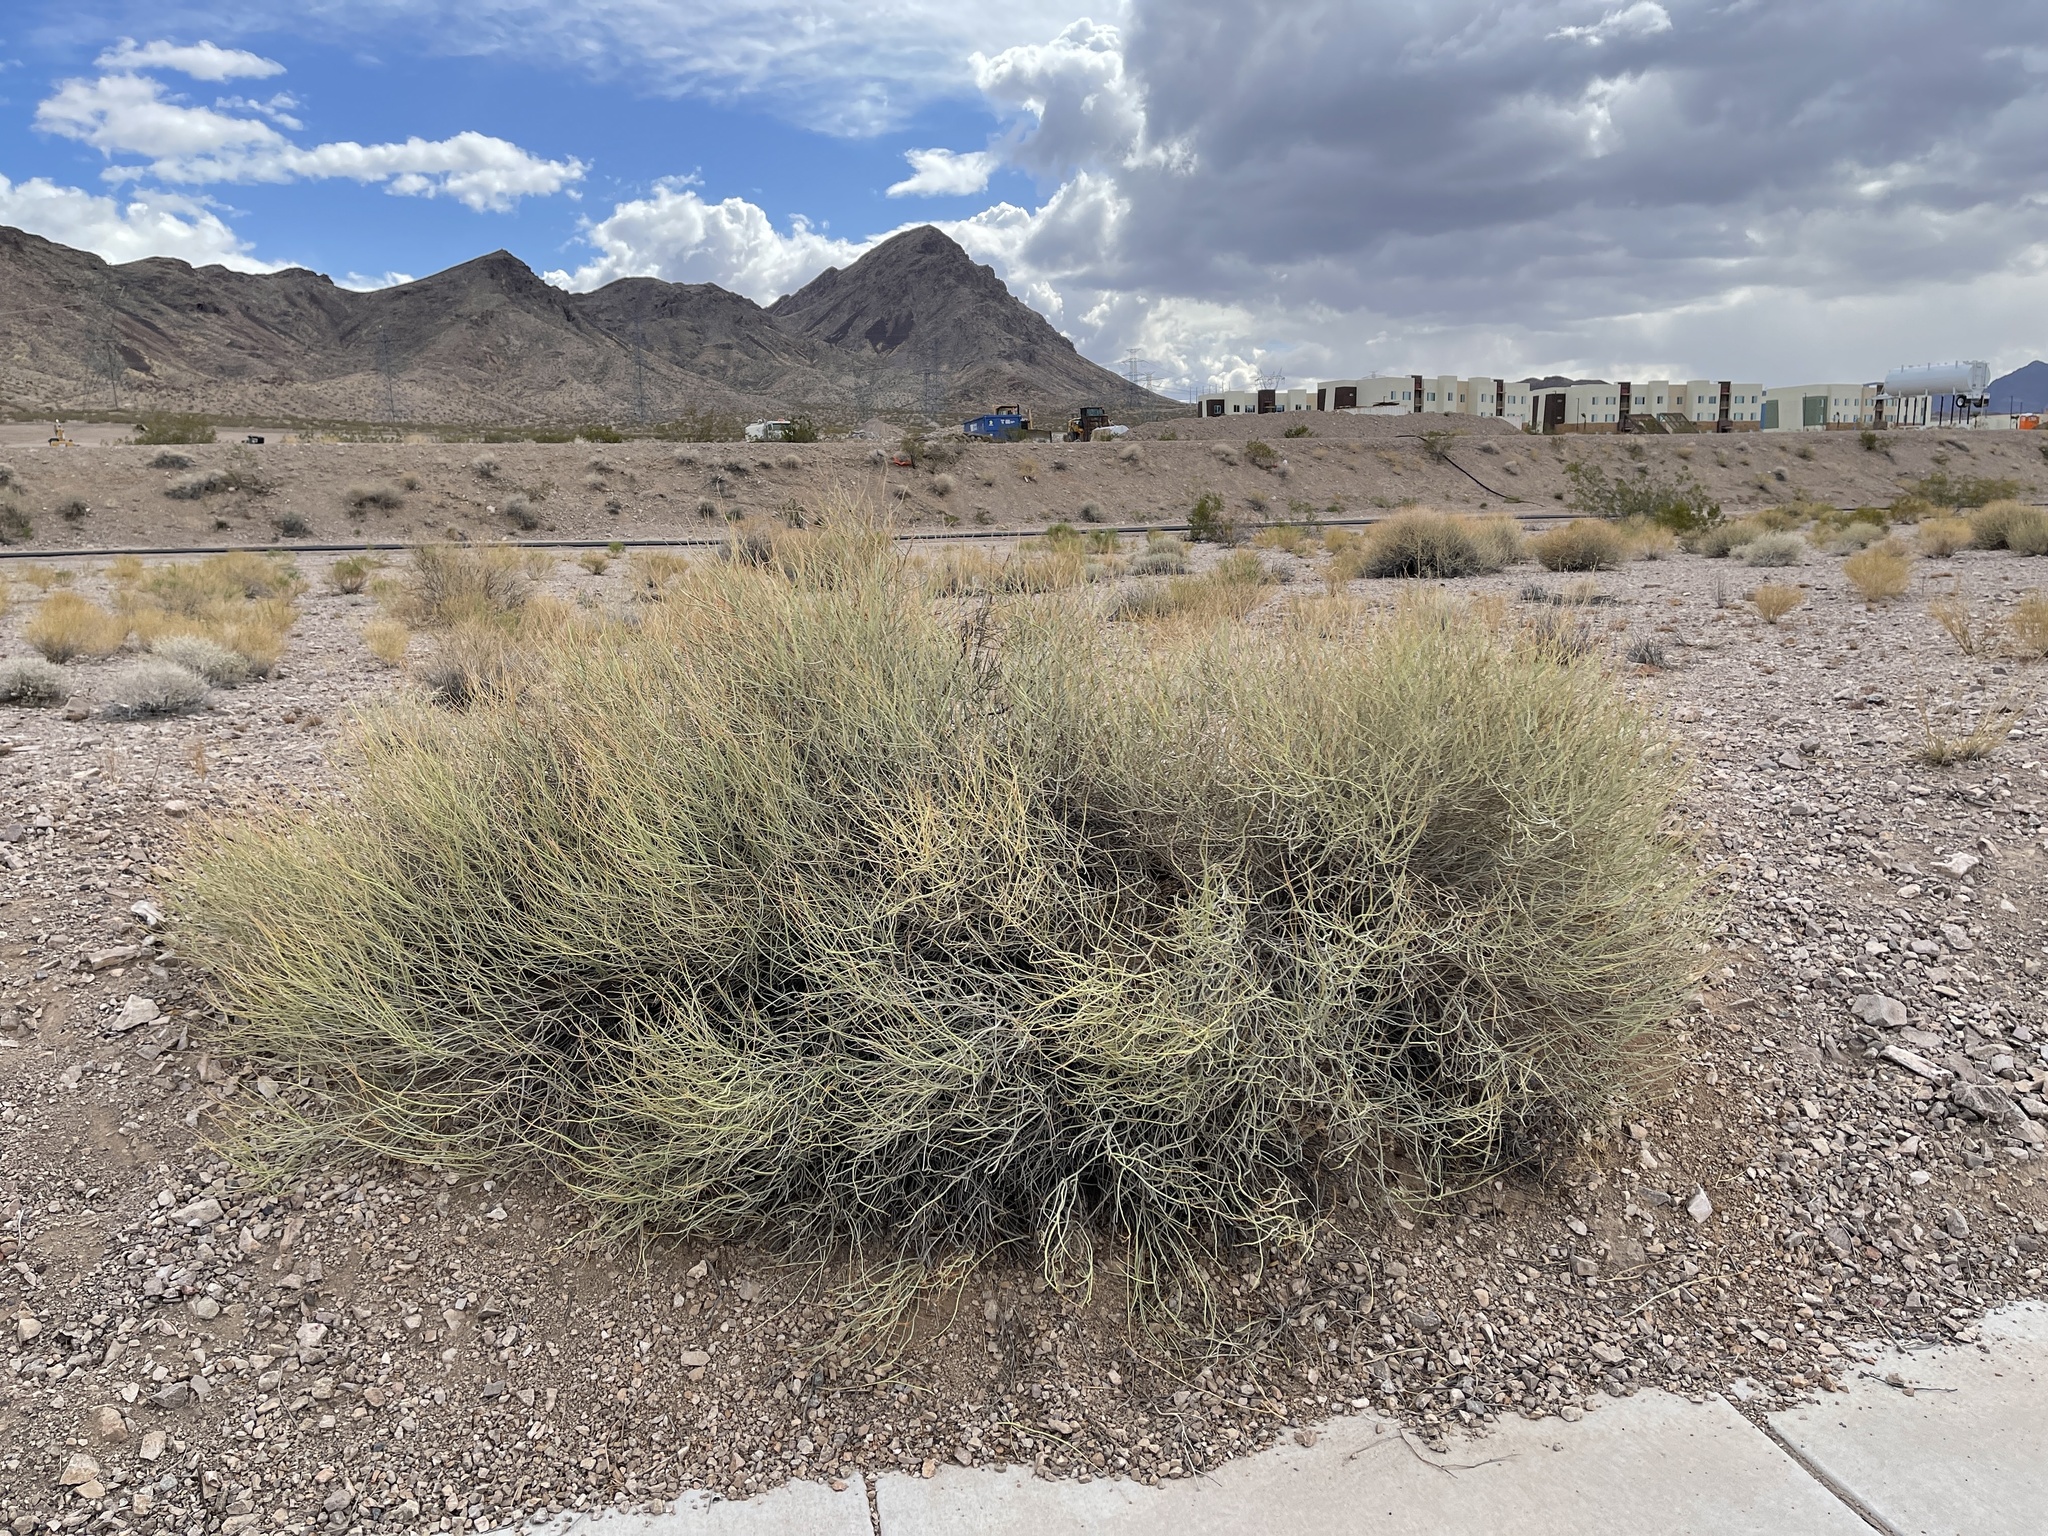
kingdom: Plantae
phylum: Tracheophyta
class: Magnoliopsida
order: Fabales
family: Fabaceae
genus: Senna
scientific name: Senna armata
